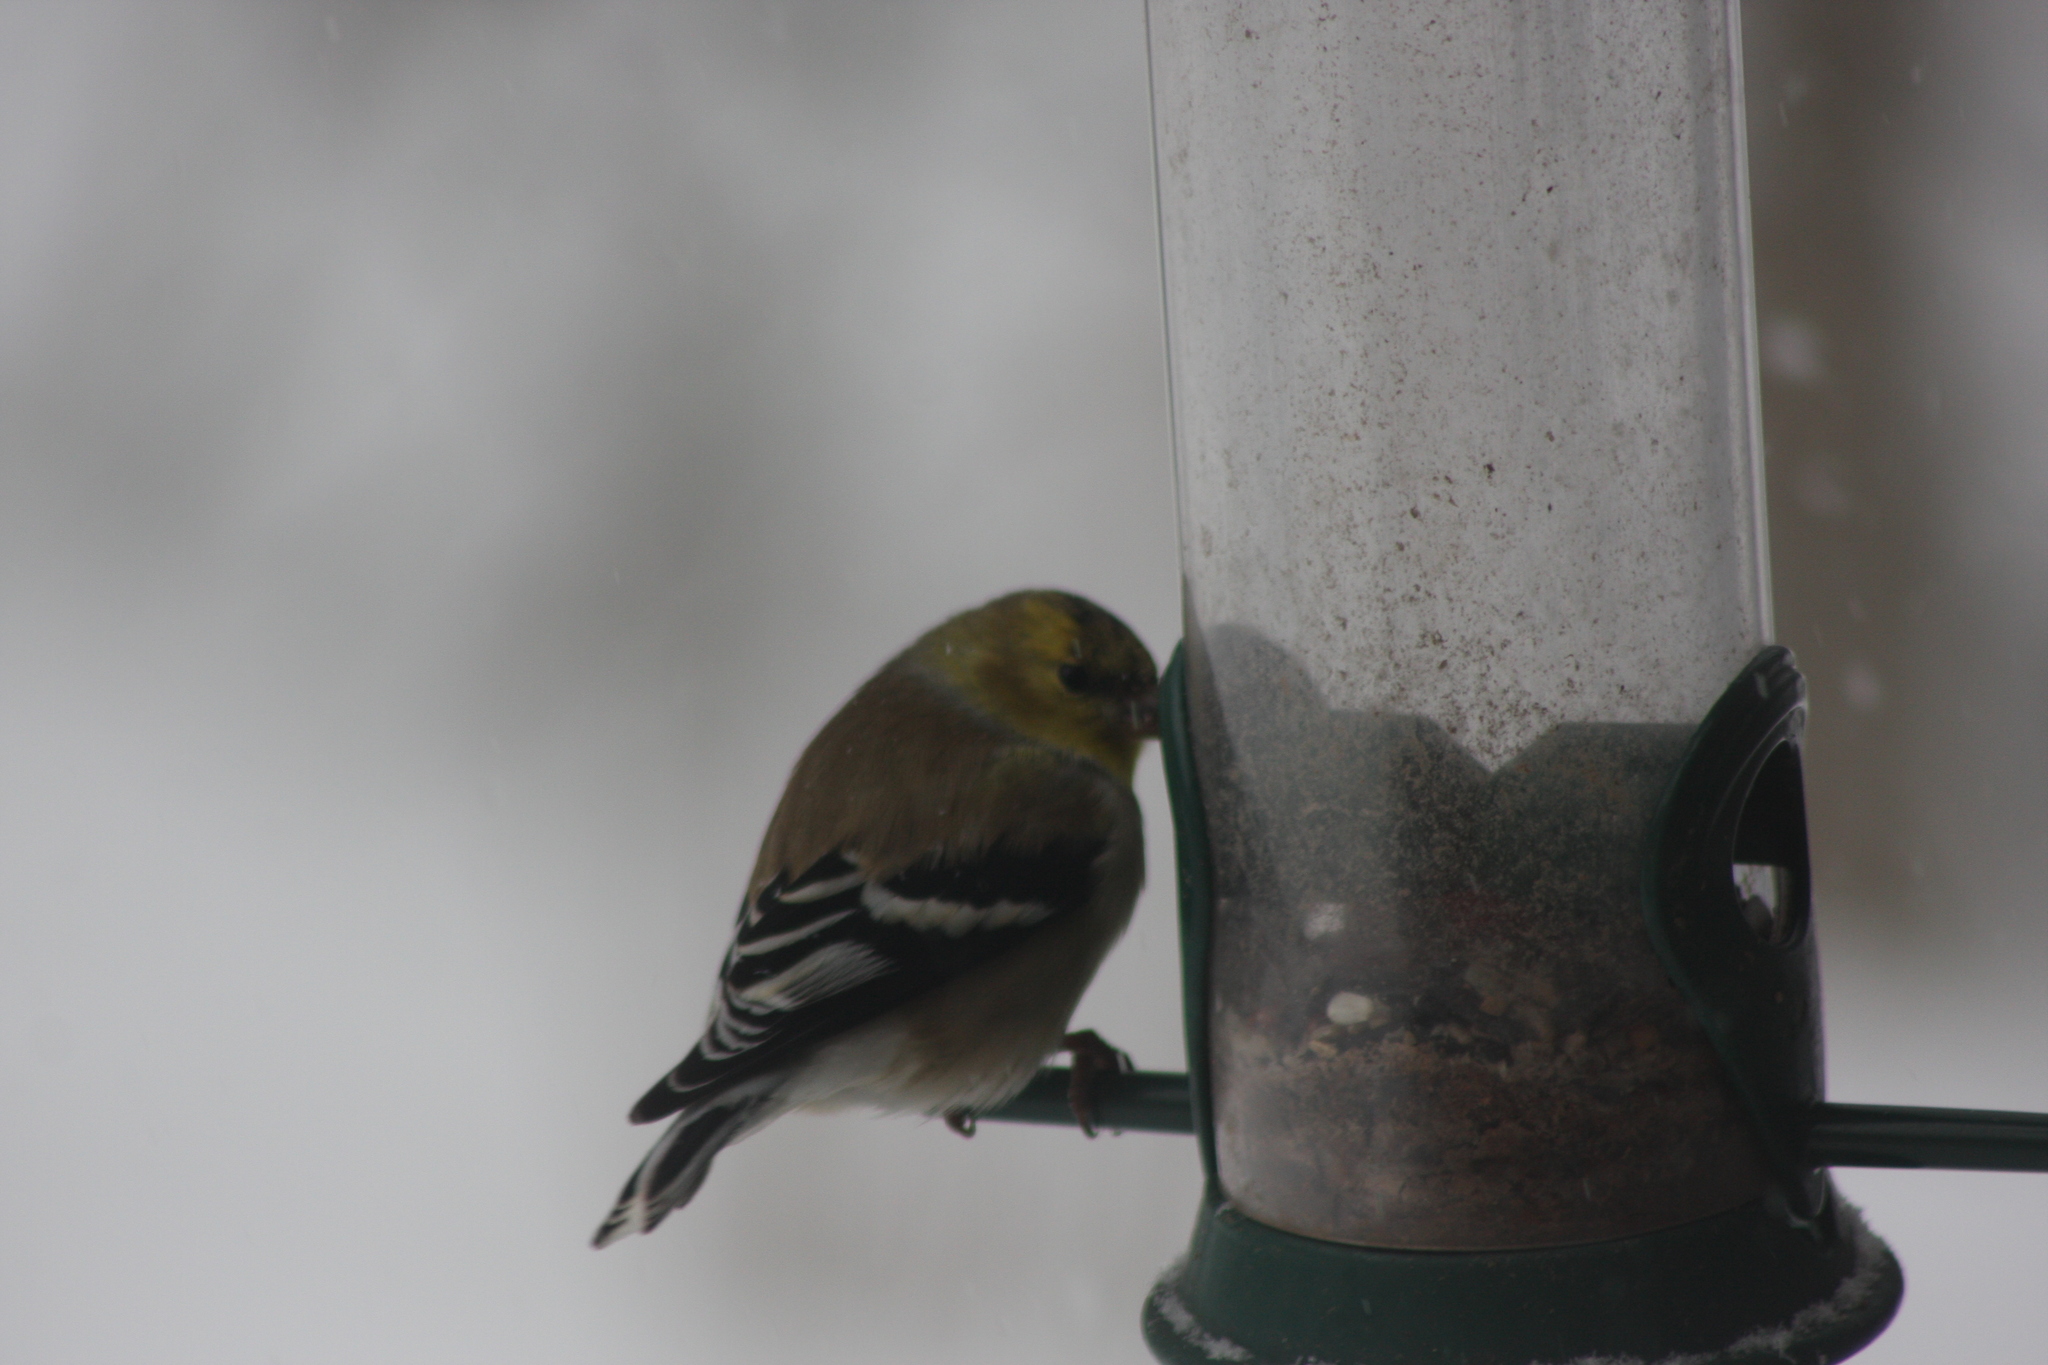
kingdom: Animalia
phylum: Chordata
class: Aves
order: Passeriformes
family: Fringillidae
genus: Spinus
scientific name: Spinus tristis
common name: American goldfinch
